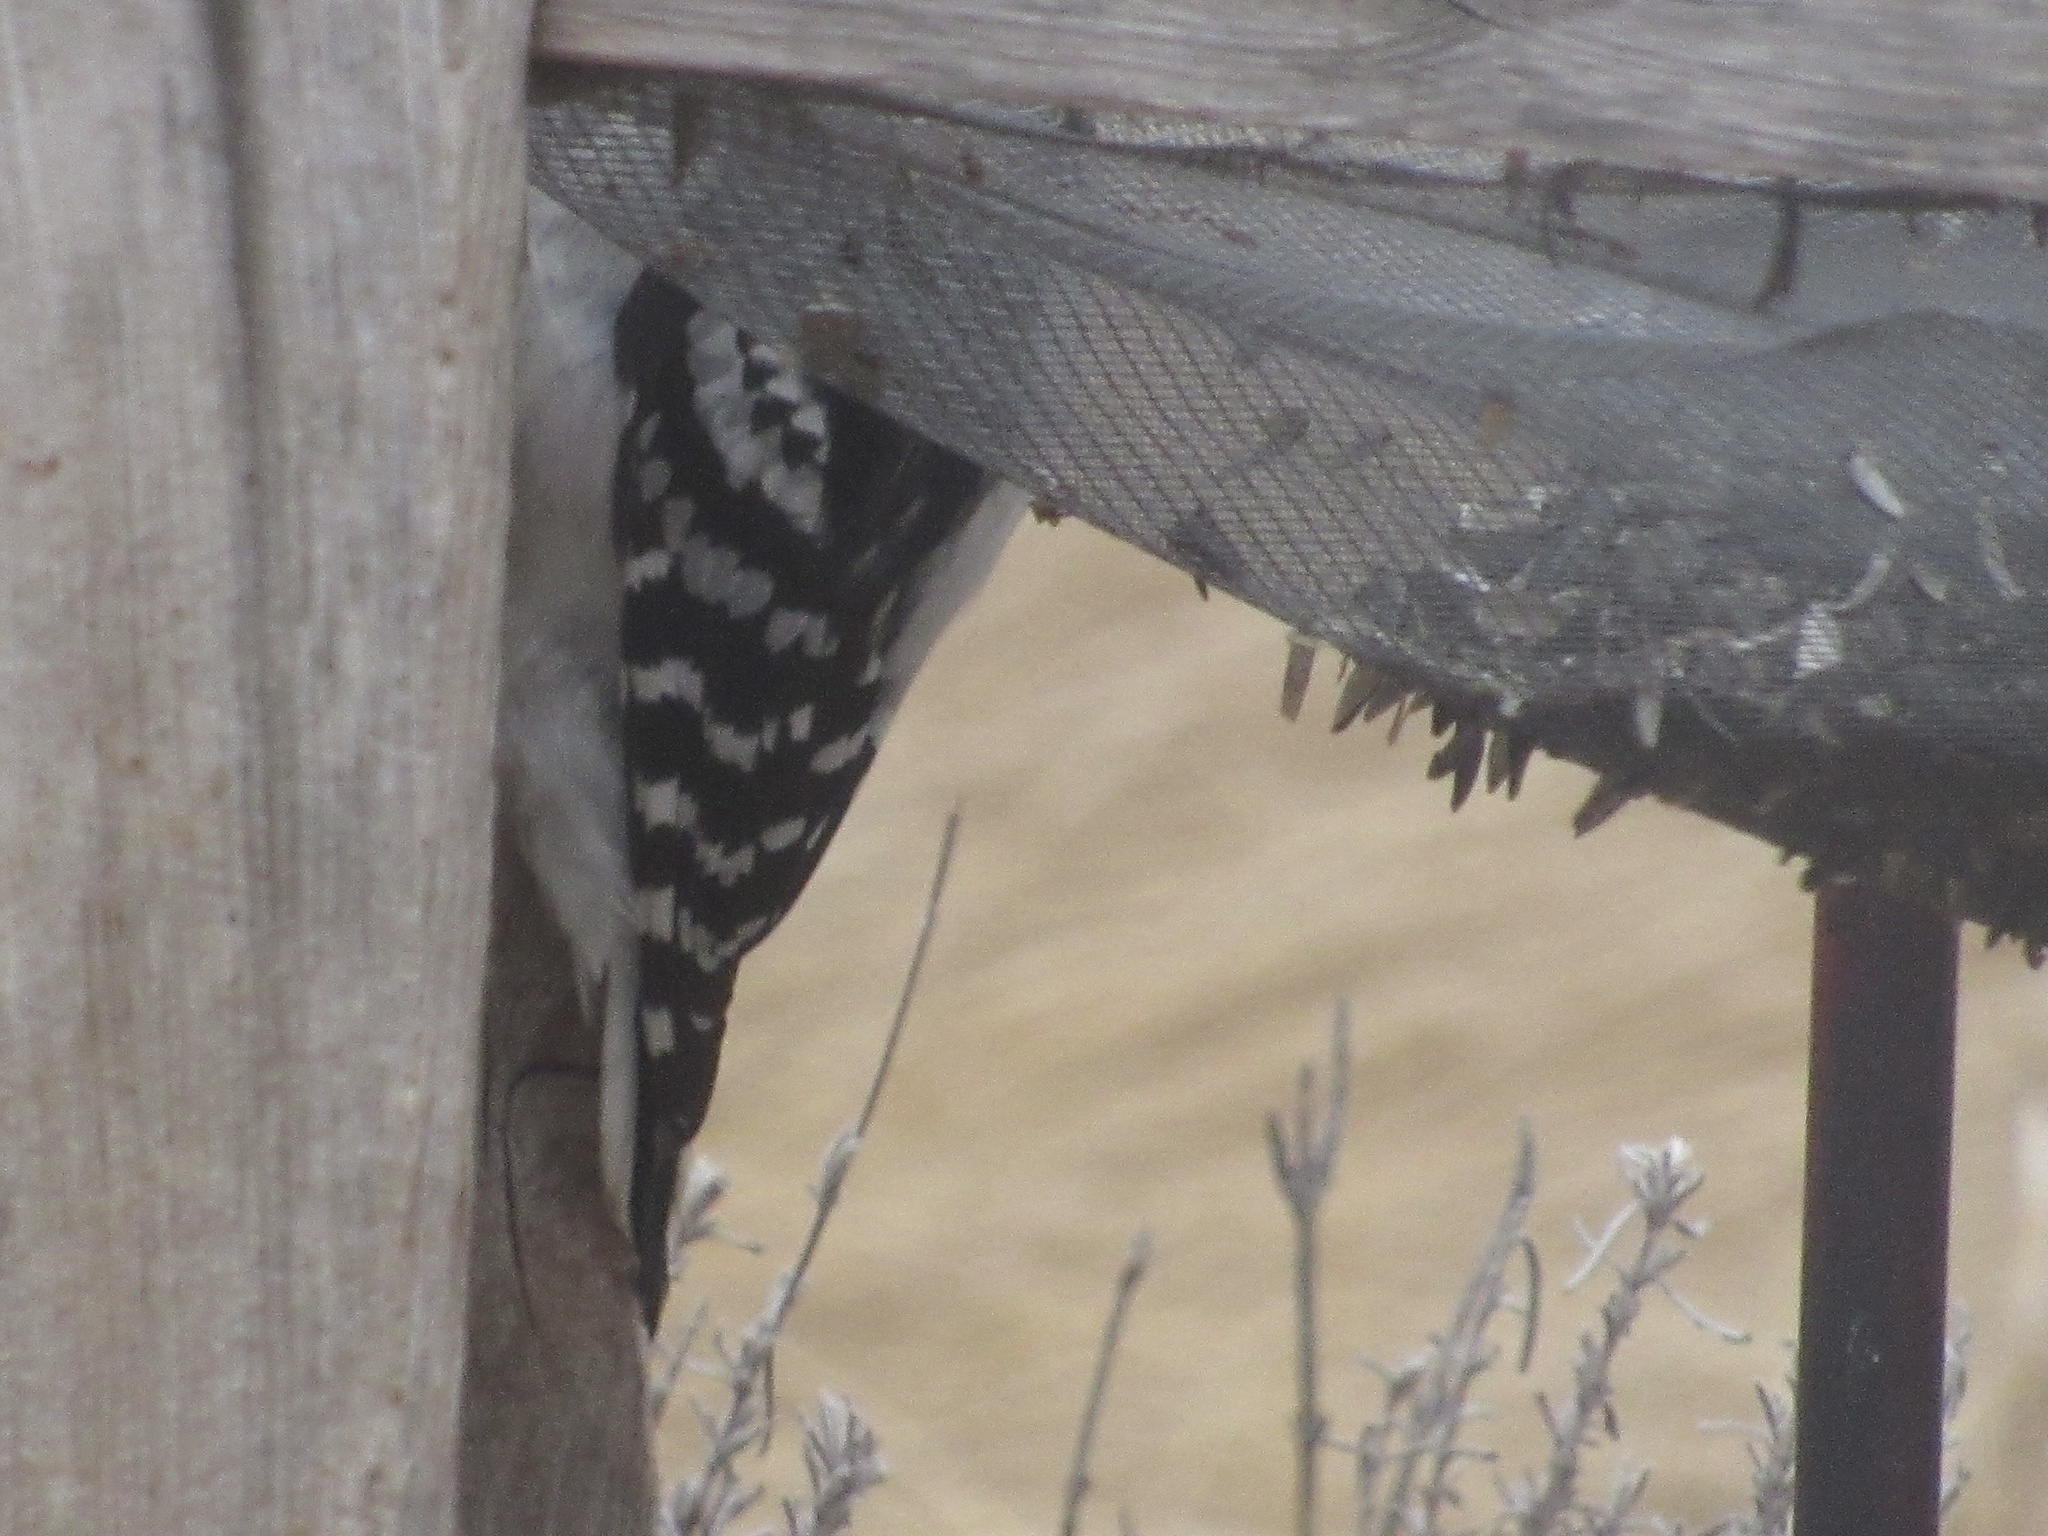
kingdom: Animalia
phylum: Chordata
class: Aves
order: Piciformes
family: Picidae
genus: Dryobates
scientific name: Dryobates pubescens
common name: Downy woodpecker
